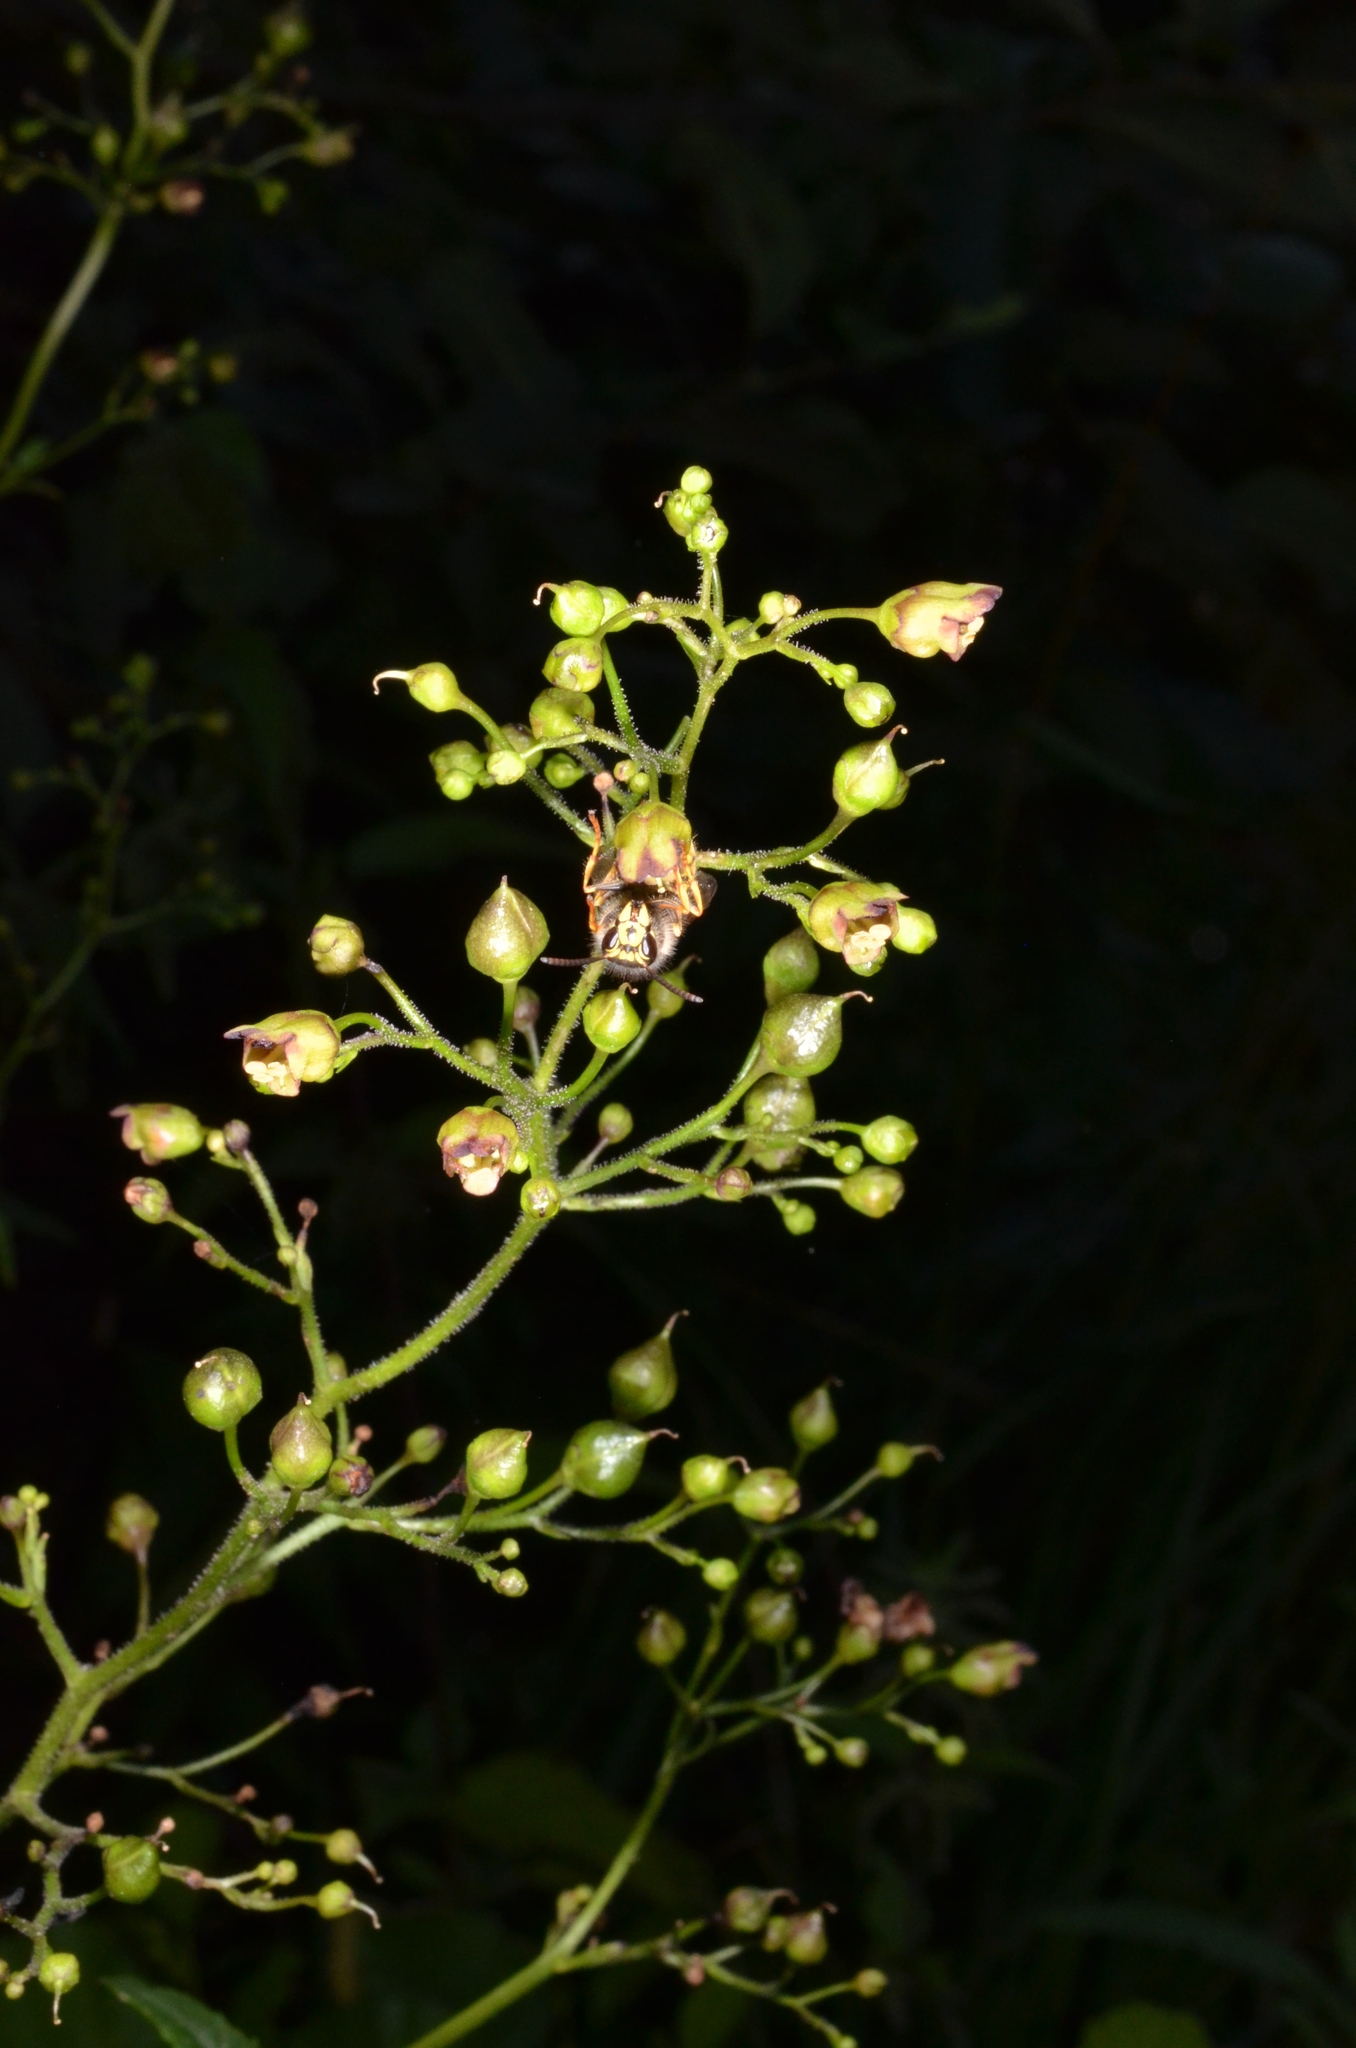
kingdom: Plantae
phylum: Tracheophyta
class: Magnoliopsida
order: Lamiales
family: Scrophulariaceae
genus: Scrophularia
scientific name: Scrophularia nodosa
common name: Common figwort
